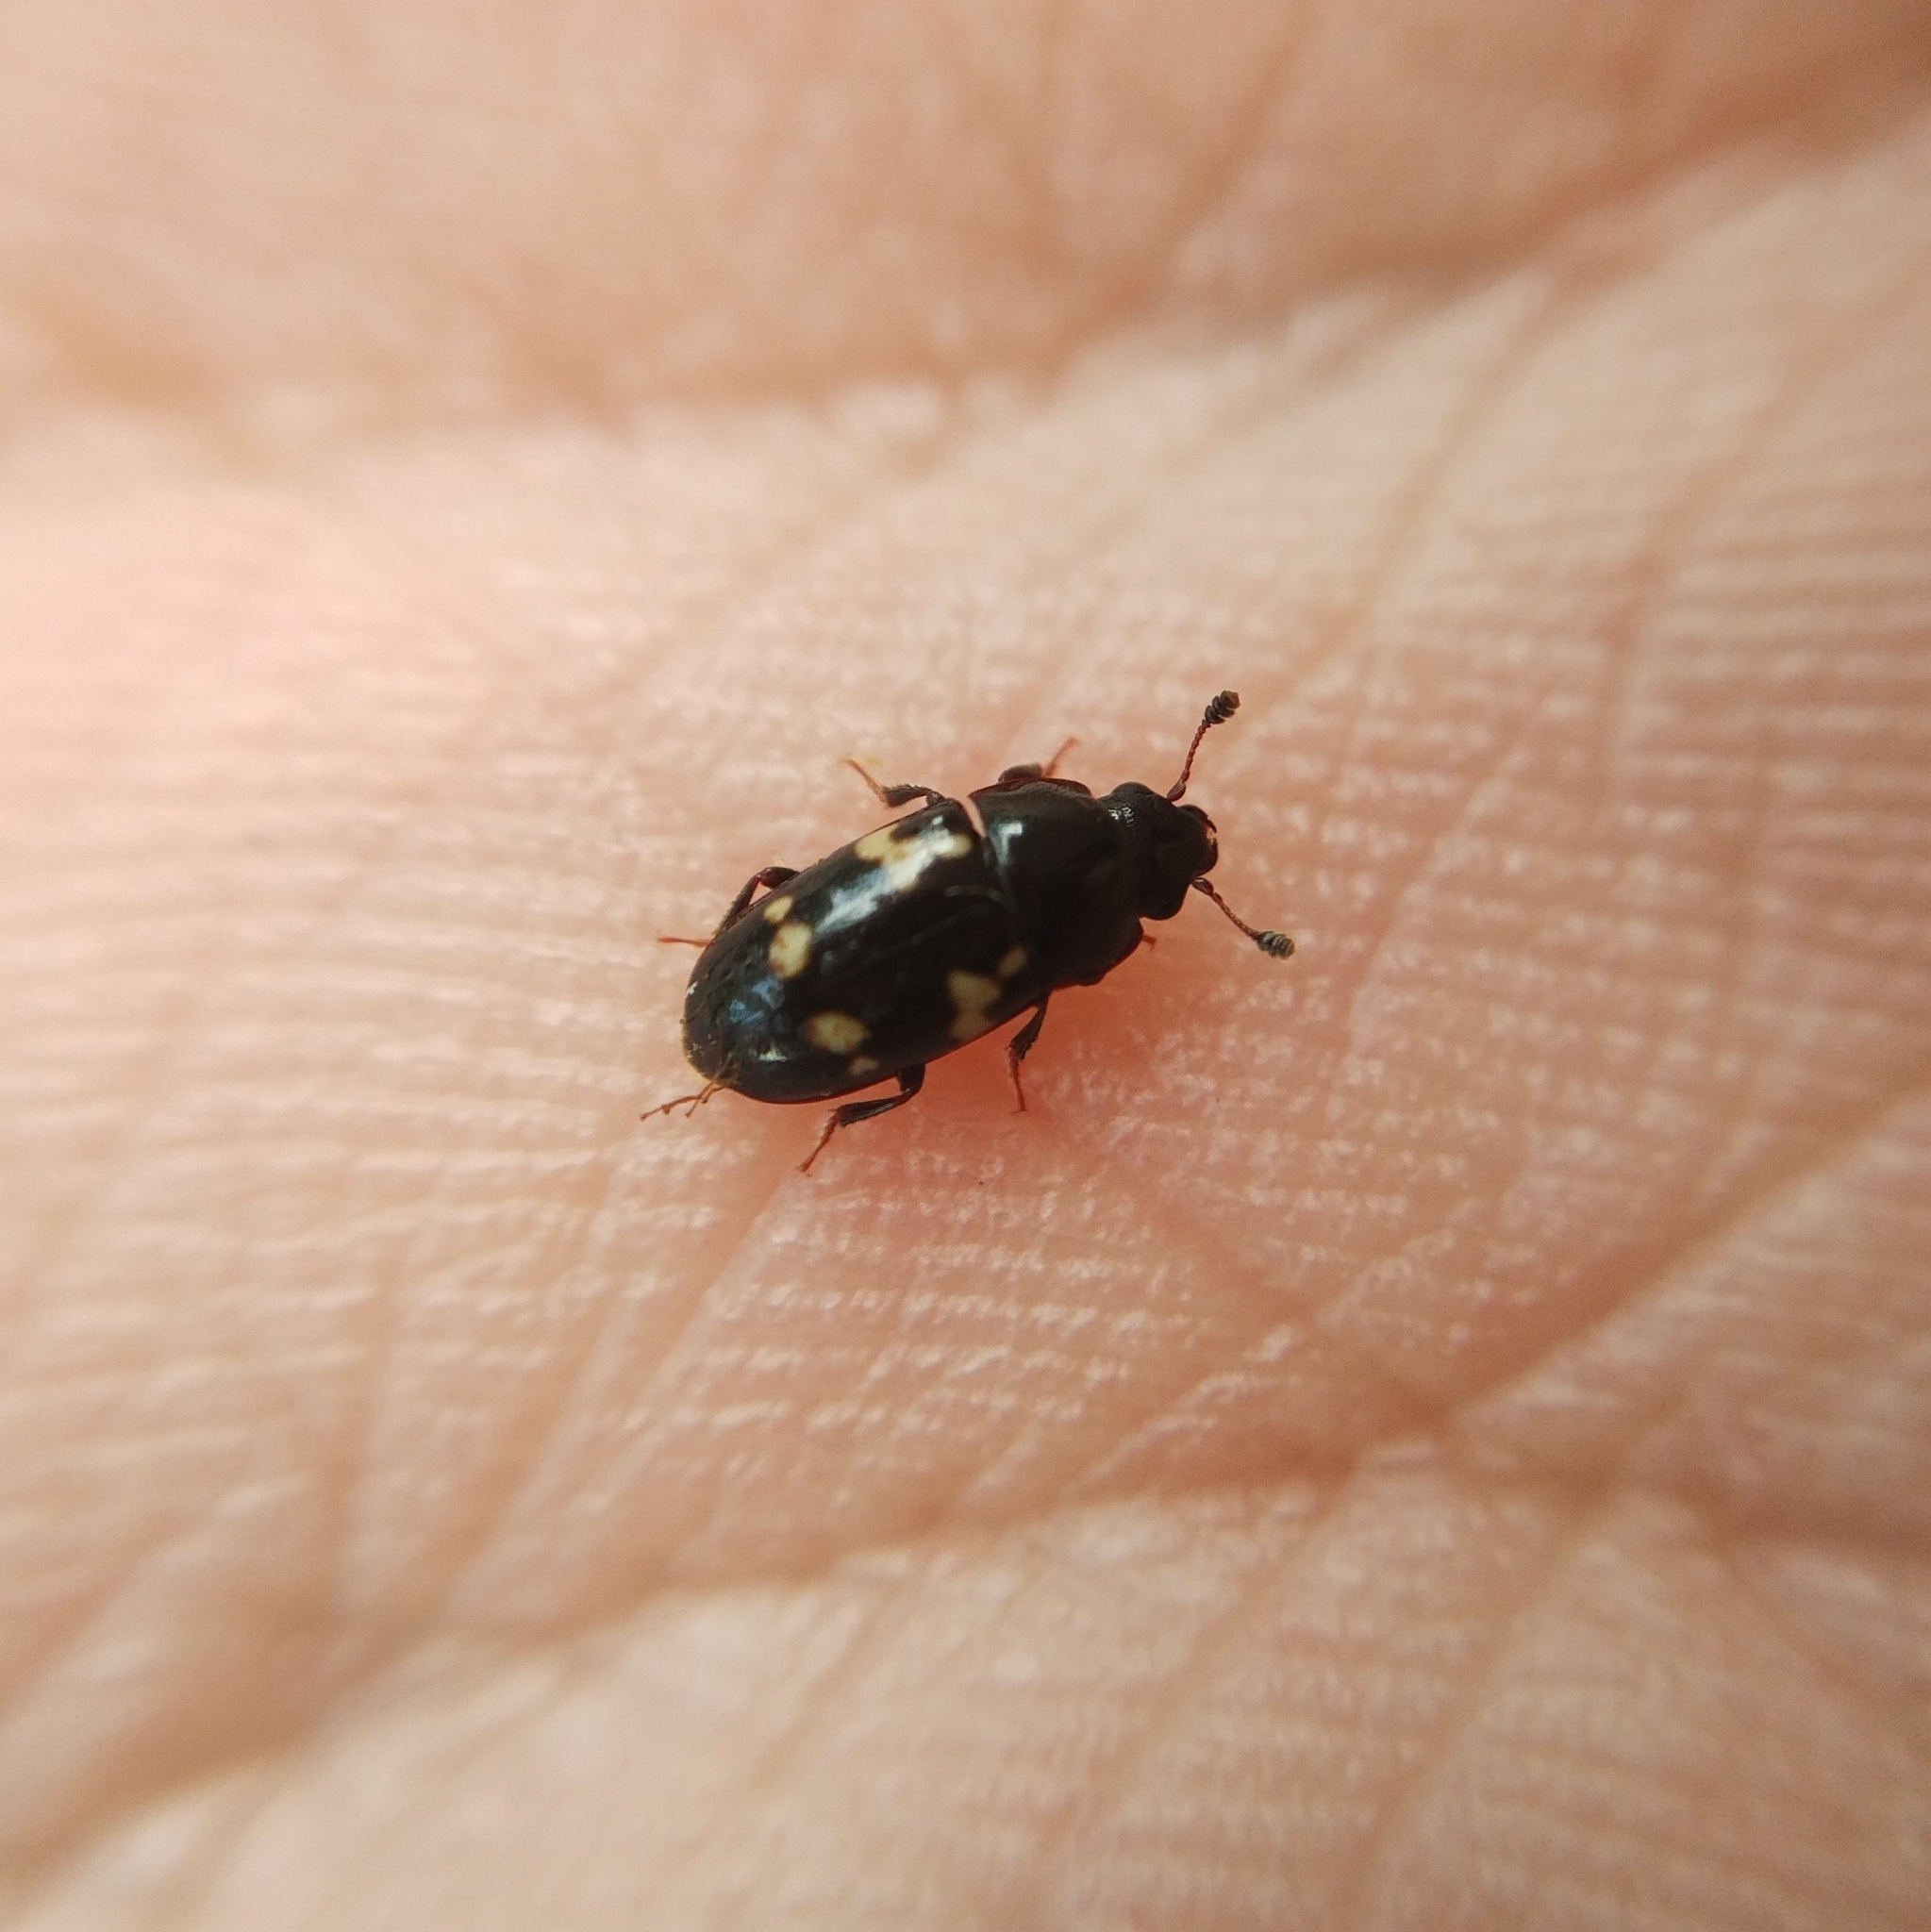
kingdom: Animalia
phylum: Arthropoda
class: Insecta
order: Coleoptera
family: Nitidulidae
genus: Glischrochilus
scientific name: Glischrochilus quadriguttatus
